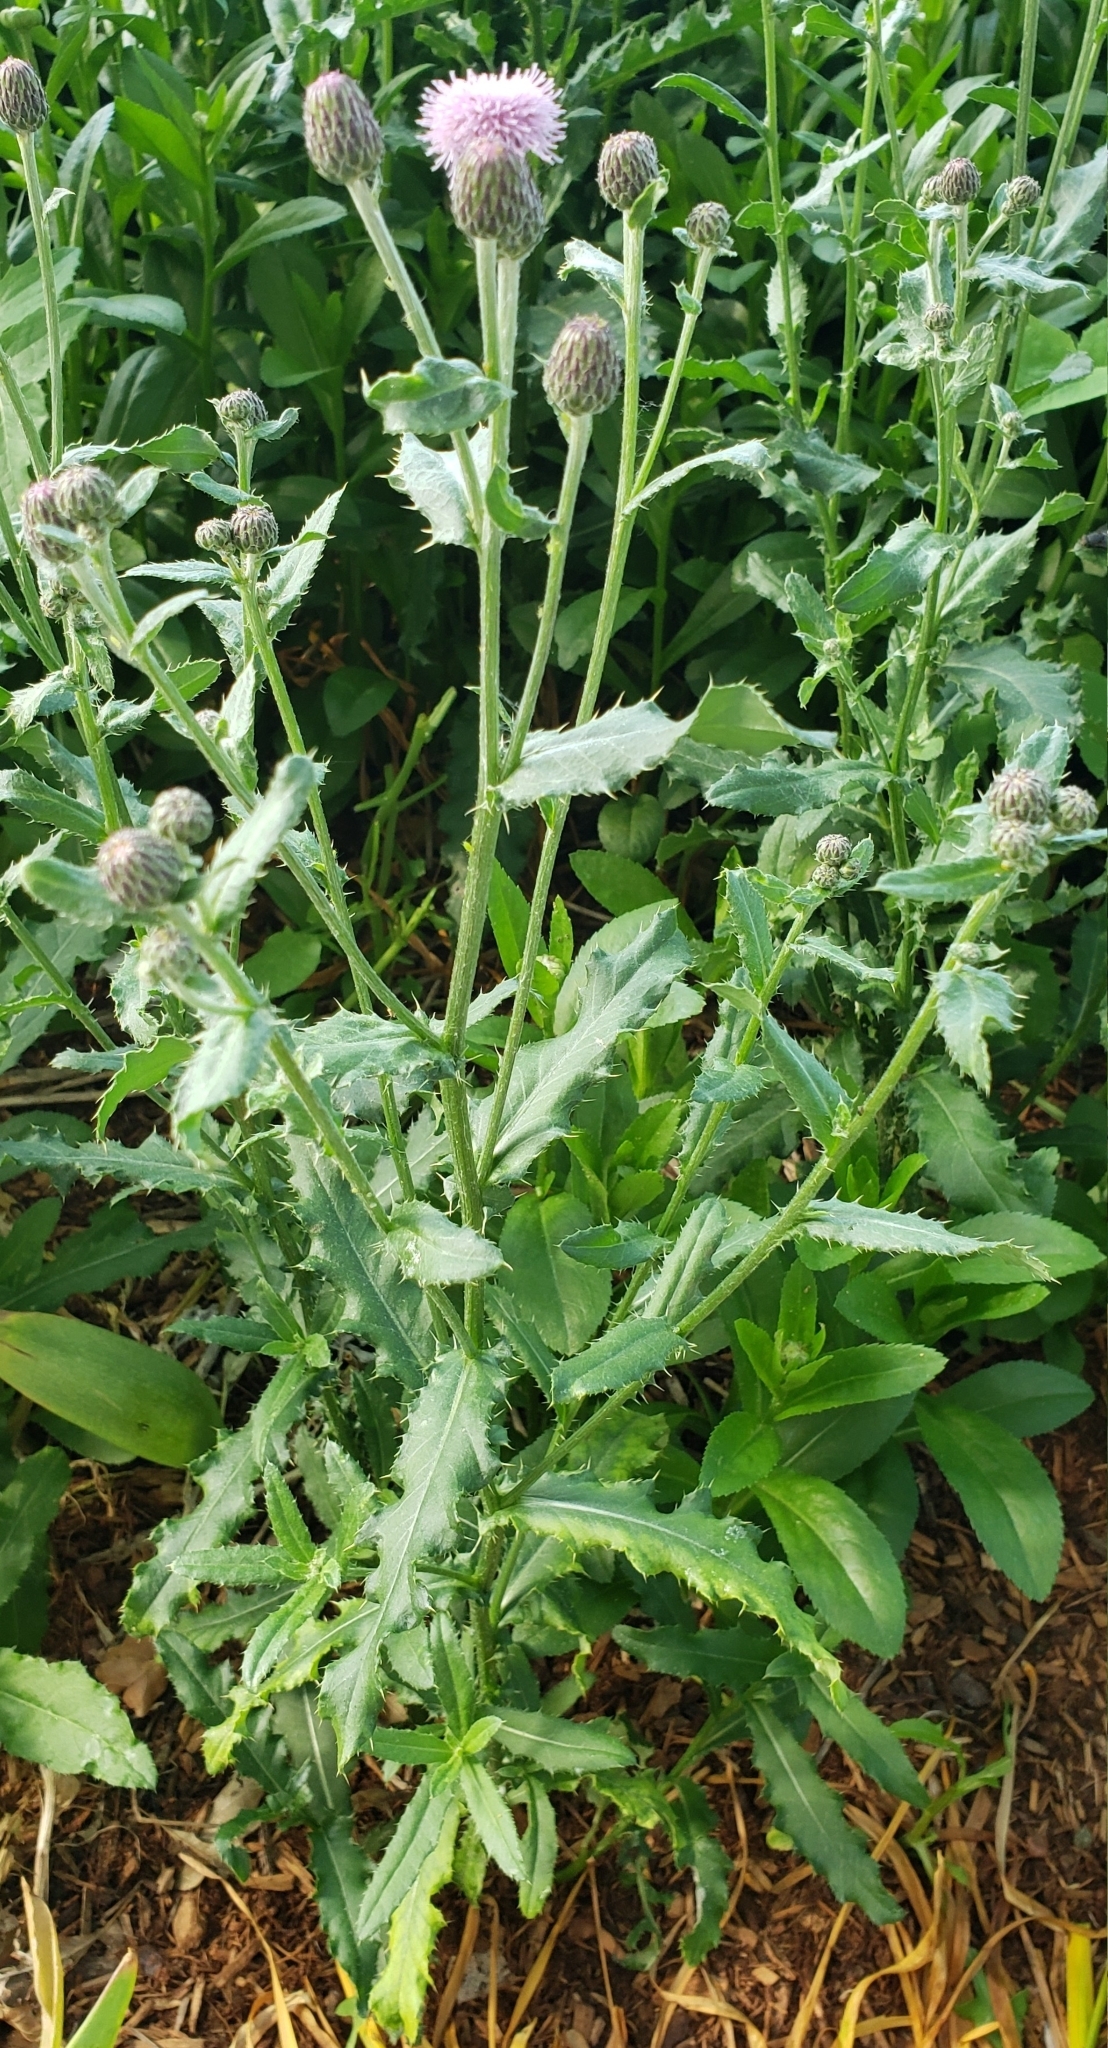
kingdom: Plantae
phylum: Tracheophyta
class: Magnoliopsida
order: Asterales
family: Asteraceae
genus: Cirsium
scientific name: Cirsium arvense
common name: Creeping thistle
